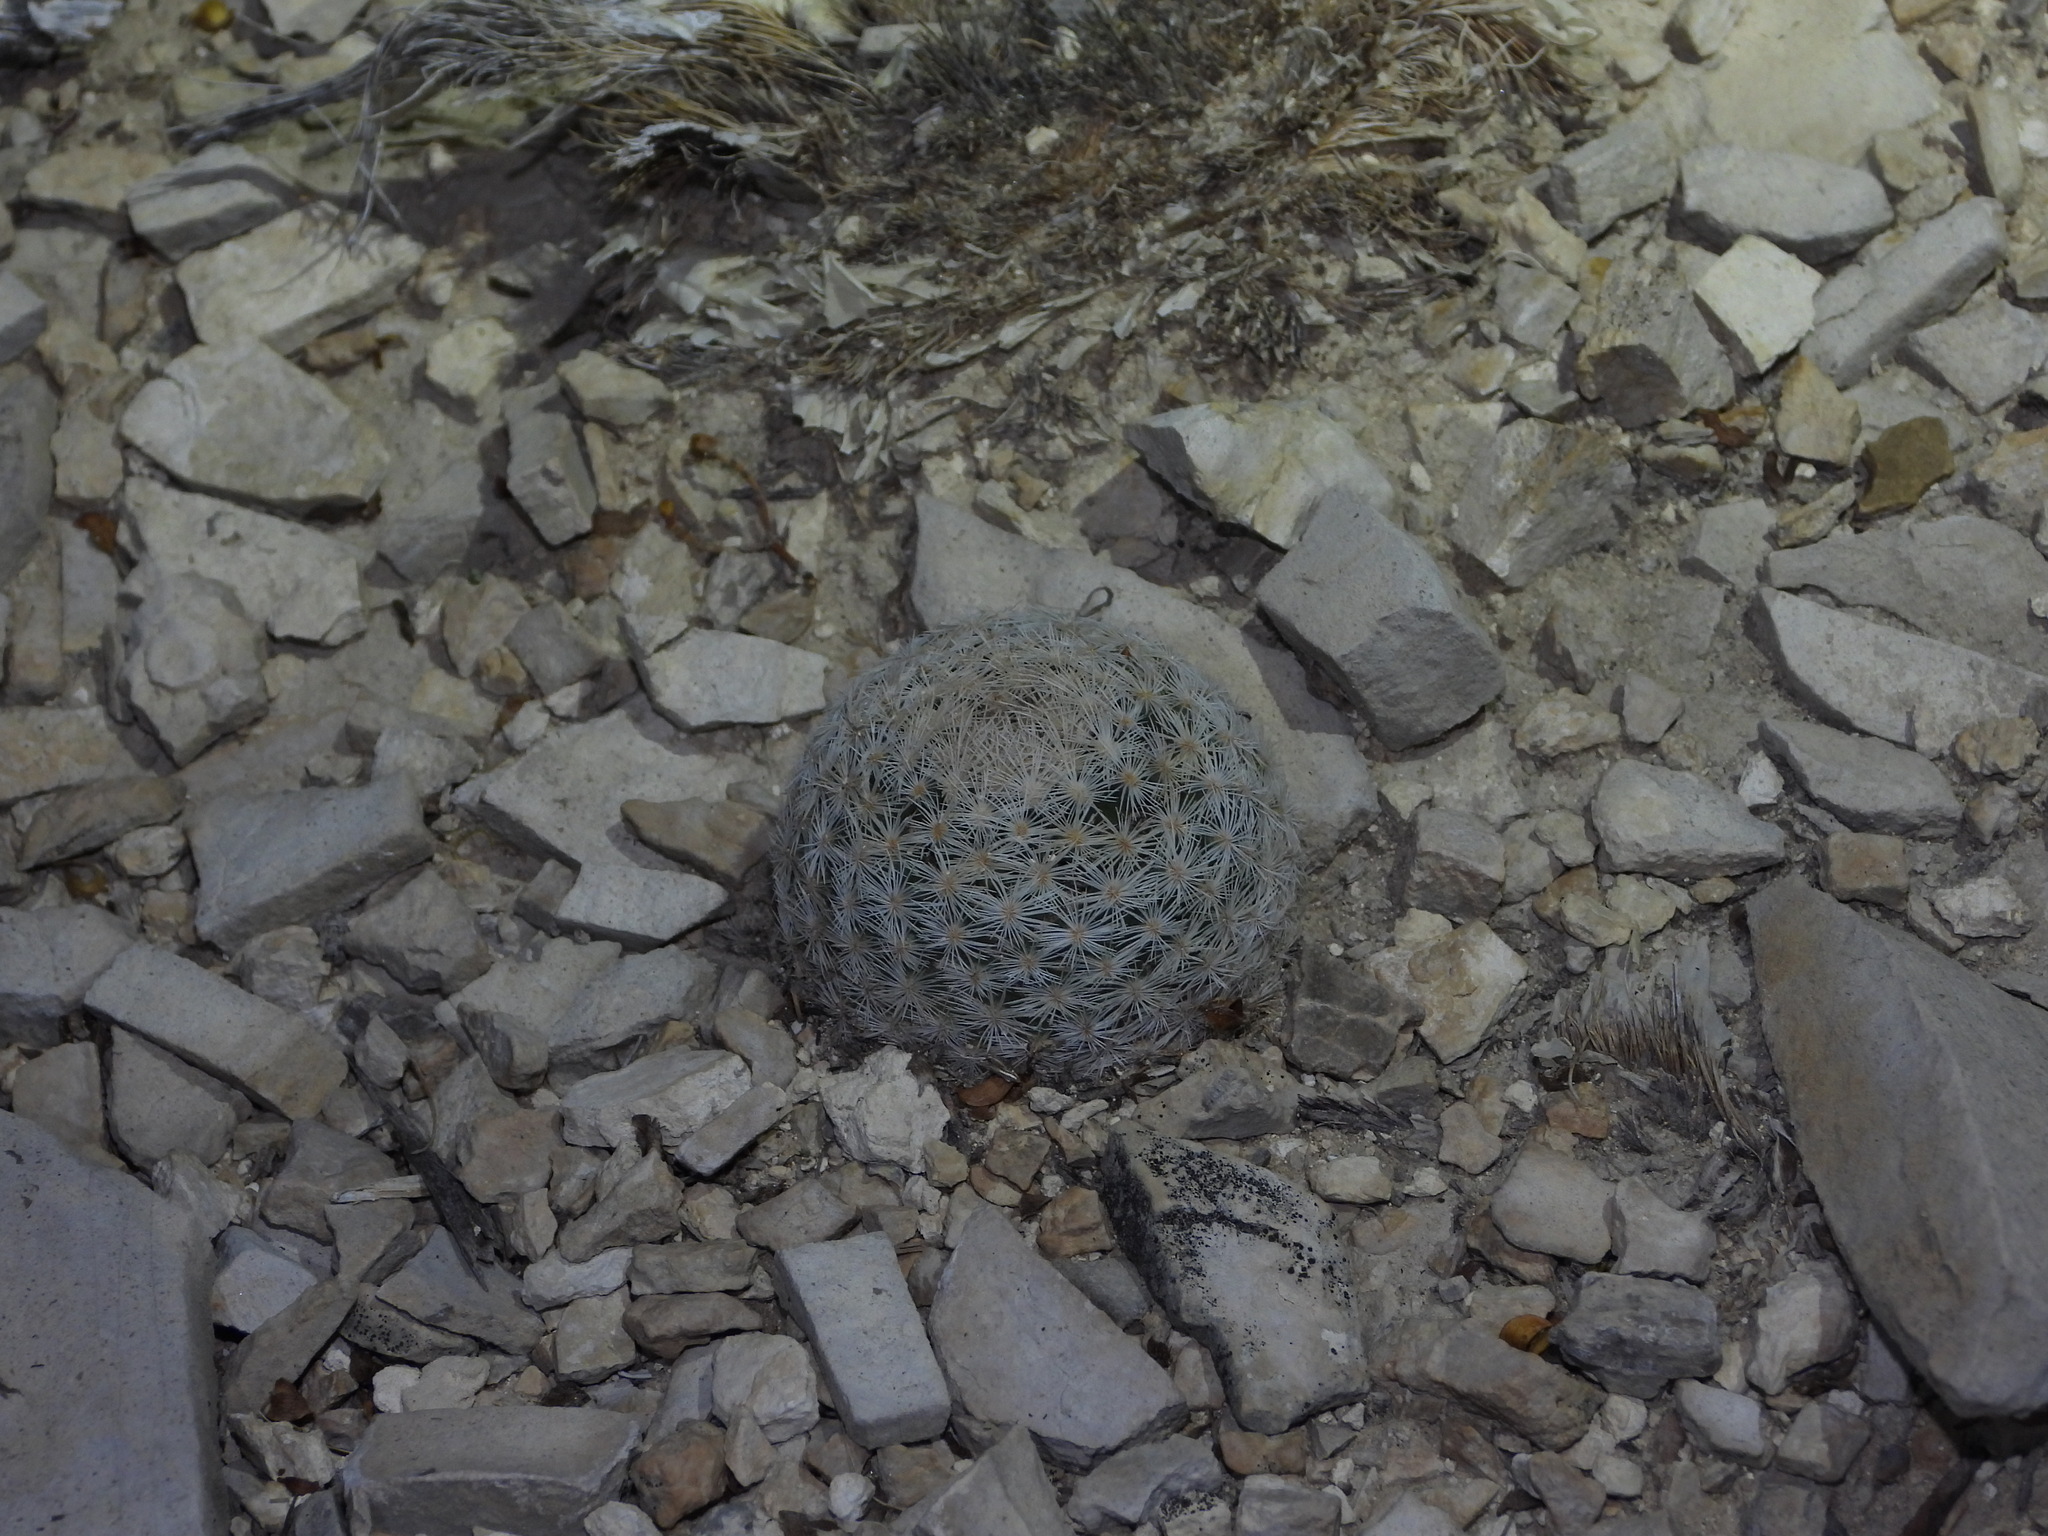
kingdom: Plantae
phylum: Tracheophyta
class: Magnoliopsida
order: Caryophyllales
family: Cactaceae
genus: Mammillaria
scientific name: Mammillaria lasiacantha
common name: Lace-spine nipple cactus
